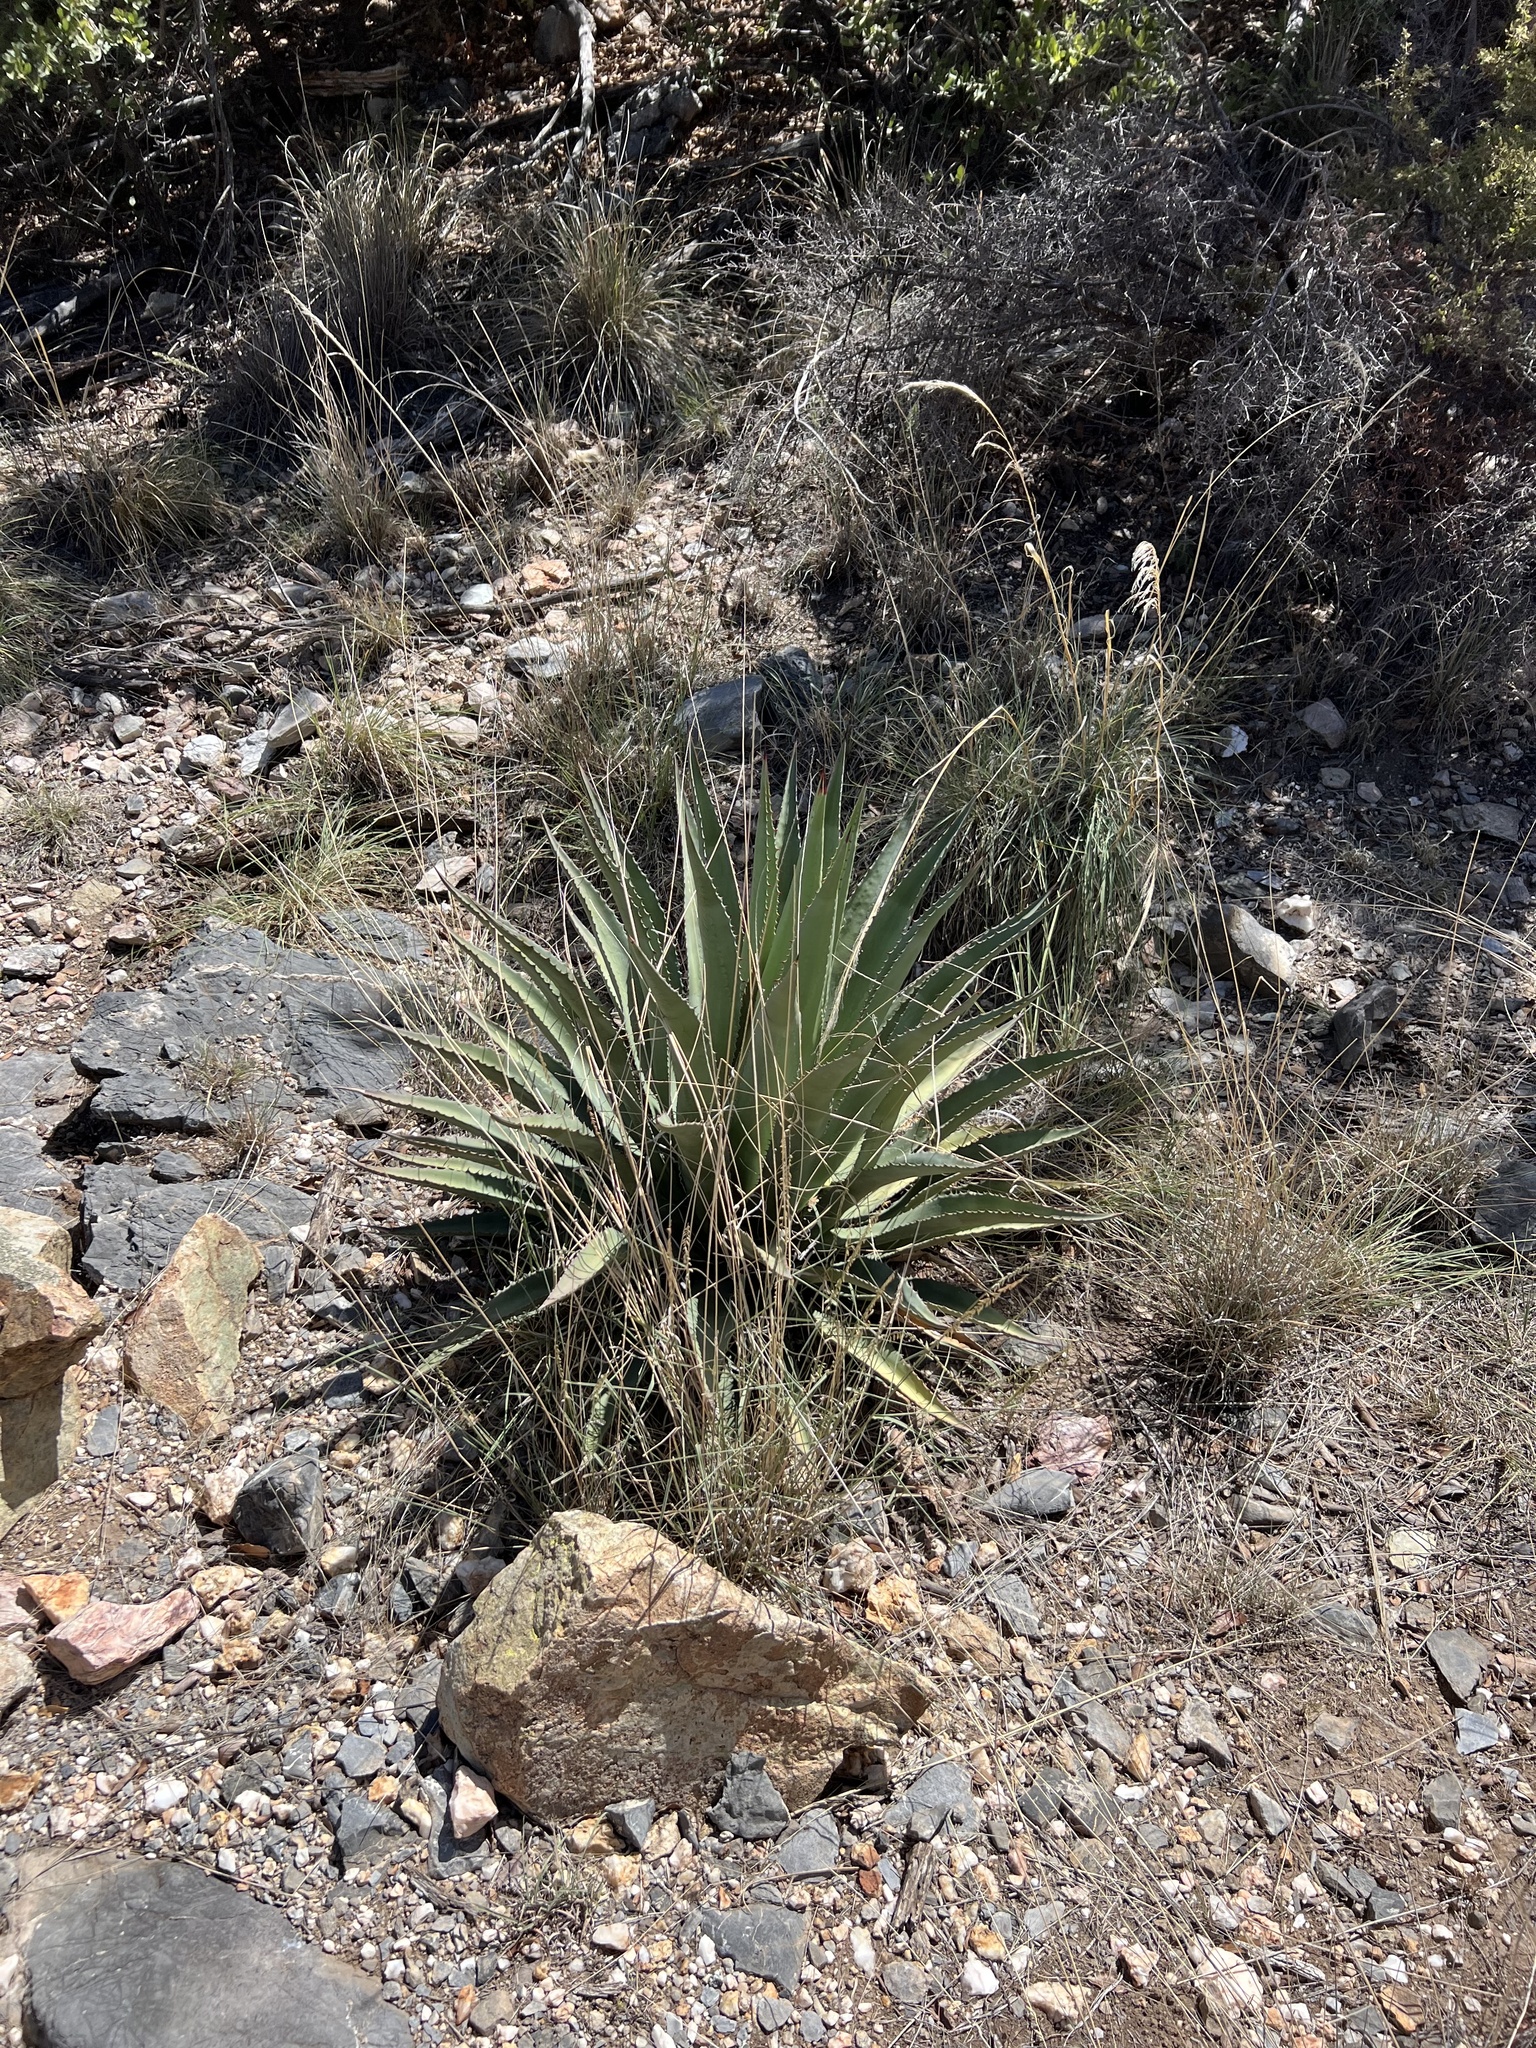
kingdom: Plantae
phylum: Tracheophyta
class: Liliopsida
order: Asparagales
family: Asparagaceae
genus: Agave
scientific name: Agave palmeri
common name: Palmer agave
